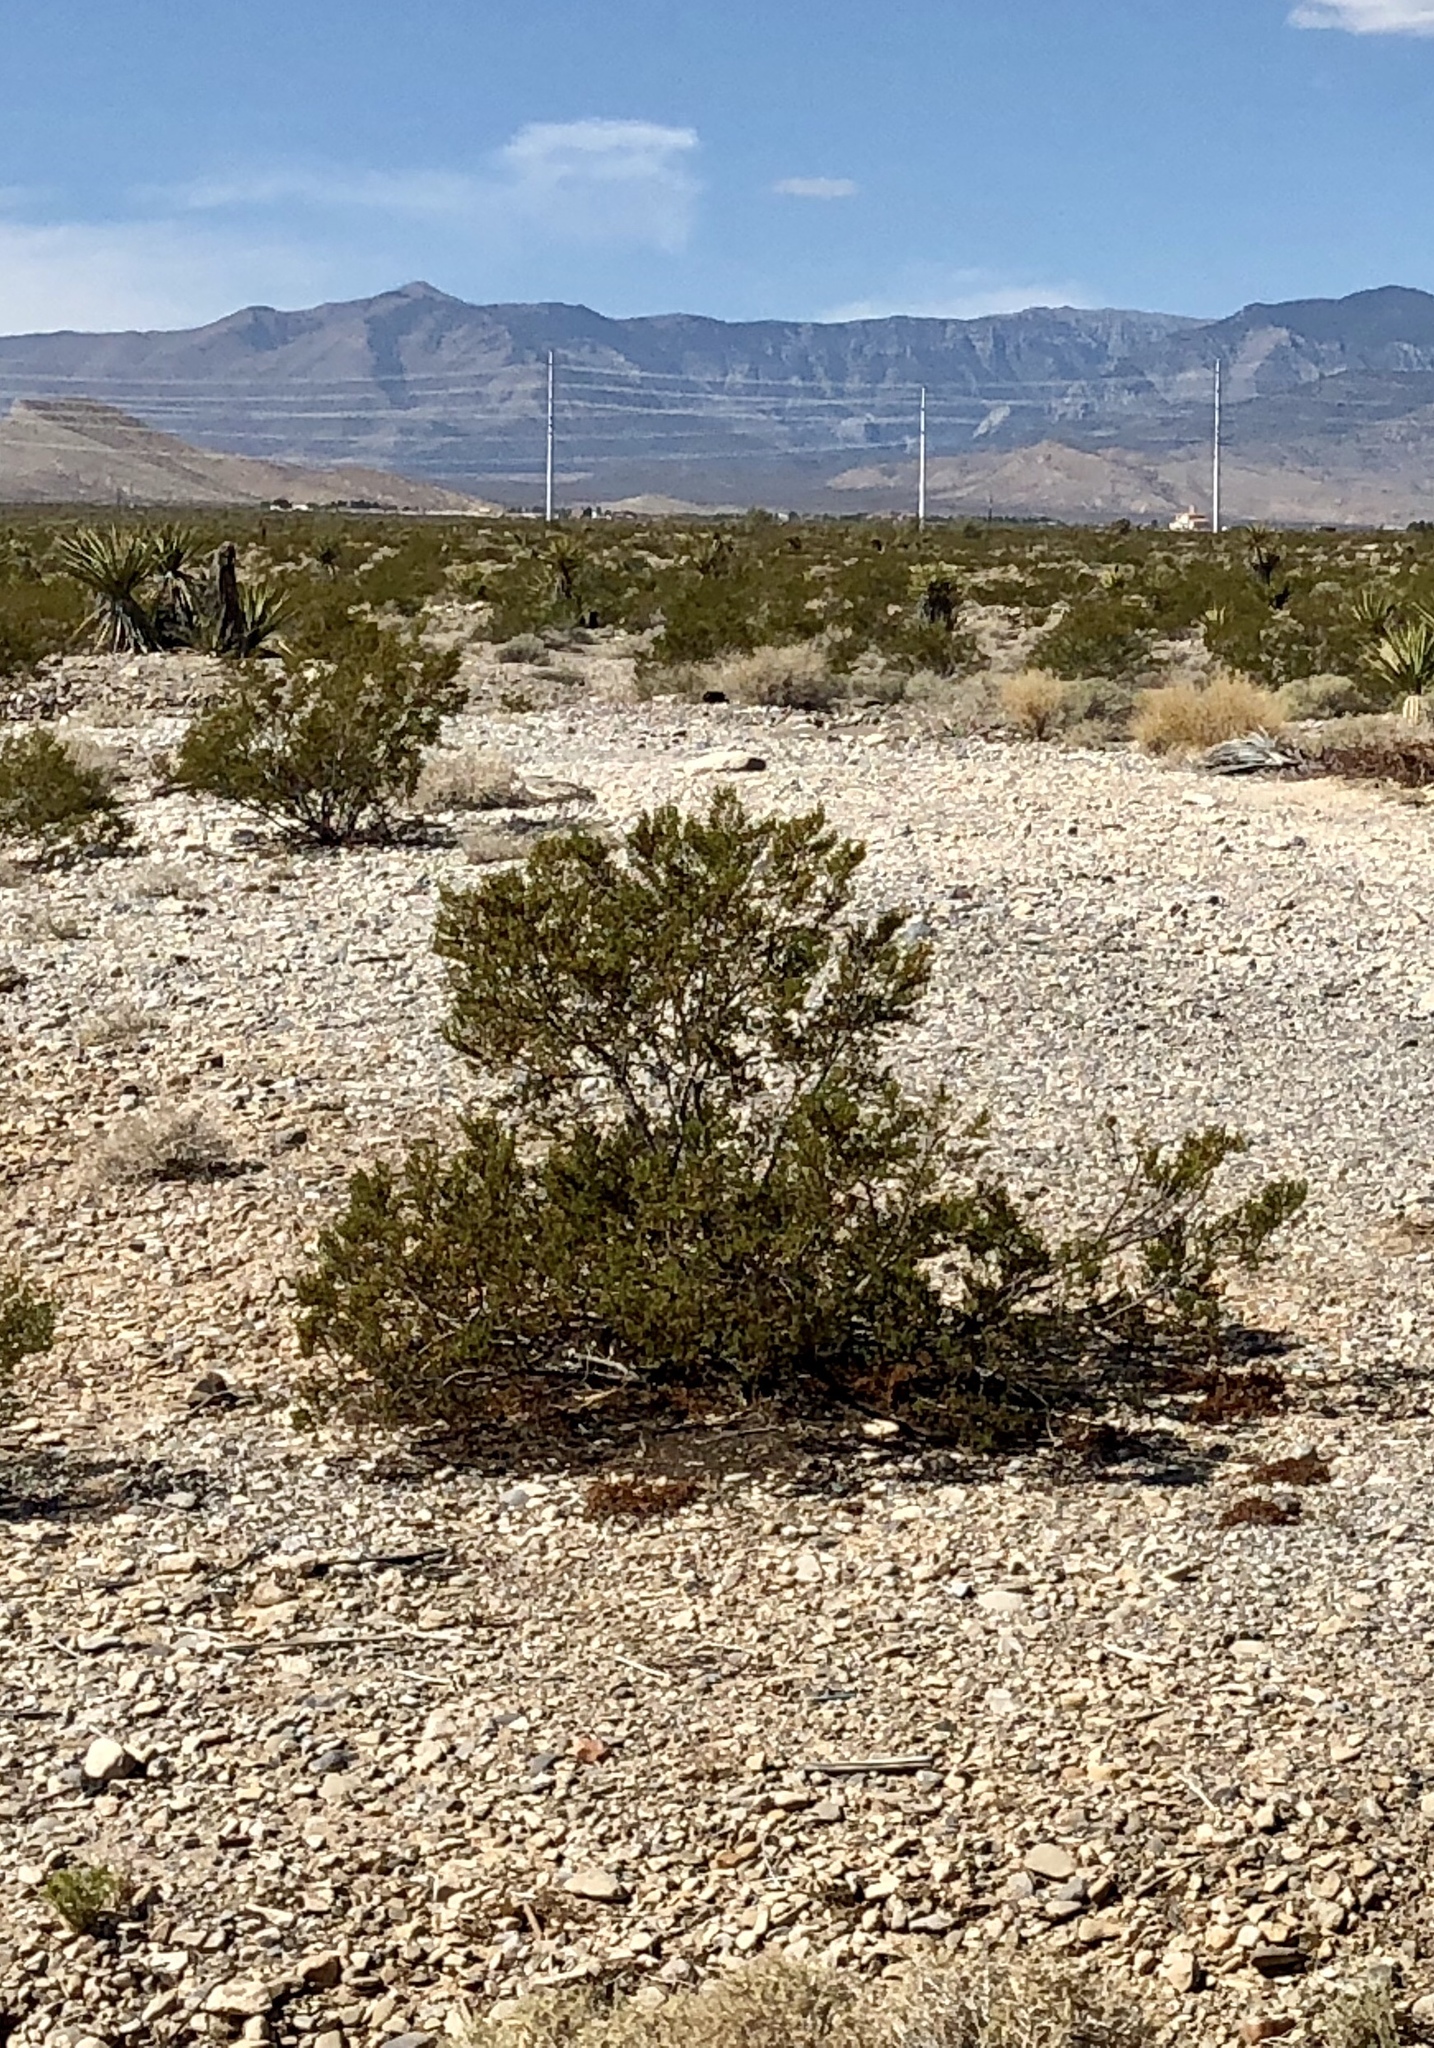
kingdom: Plantae
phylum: Tracheophyta
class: Magnoliopsida
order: Zygophyllales
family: Zygophyllaceae
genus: Larrea
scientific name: Larrea tridentata
